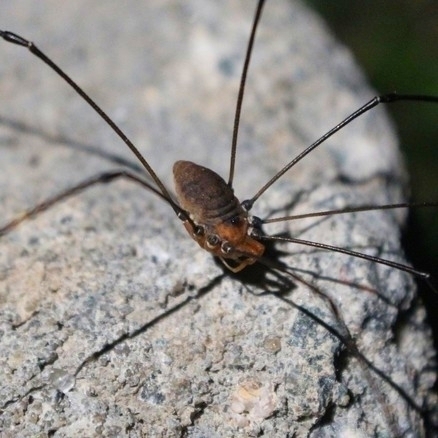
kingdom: Animalia
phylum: Arthropoda
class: Arachnida
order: Opiliones
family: Sclerosomatidae
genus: Leiobunum
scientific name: Leiobunum vittatum
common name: Eastern harvestman
